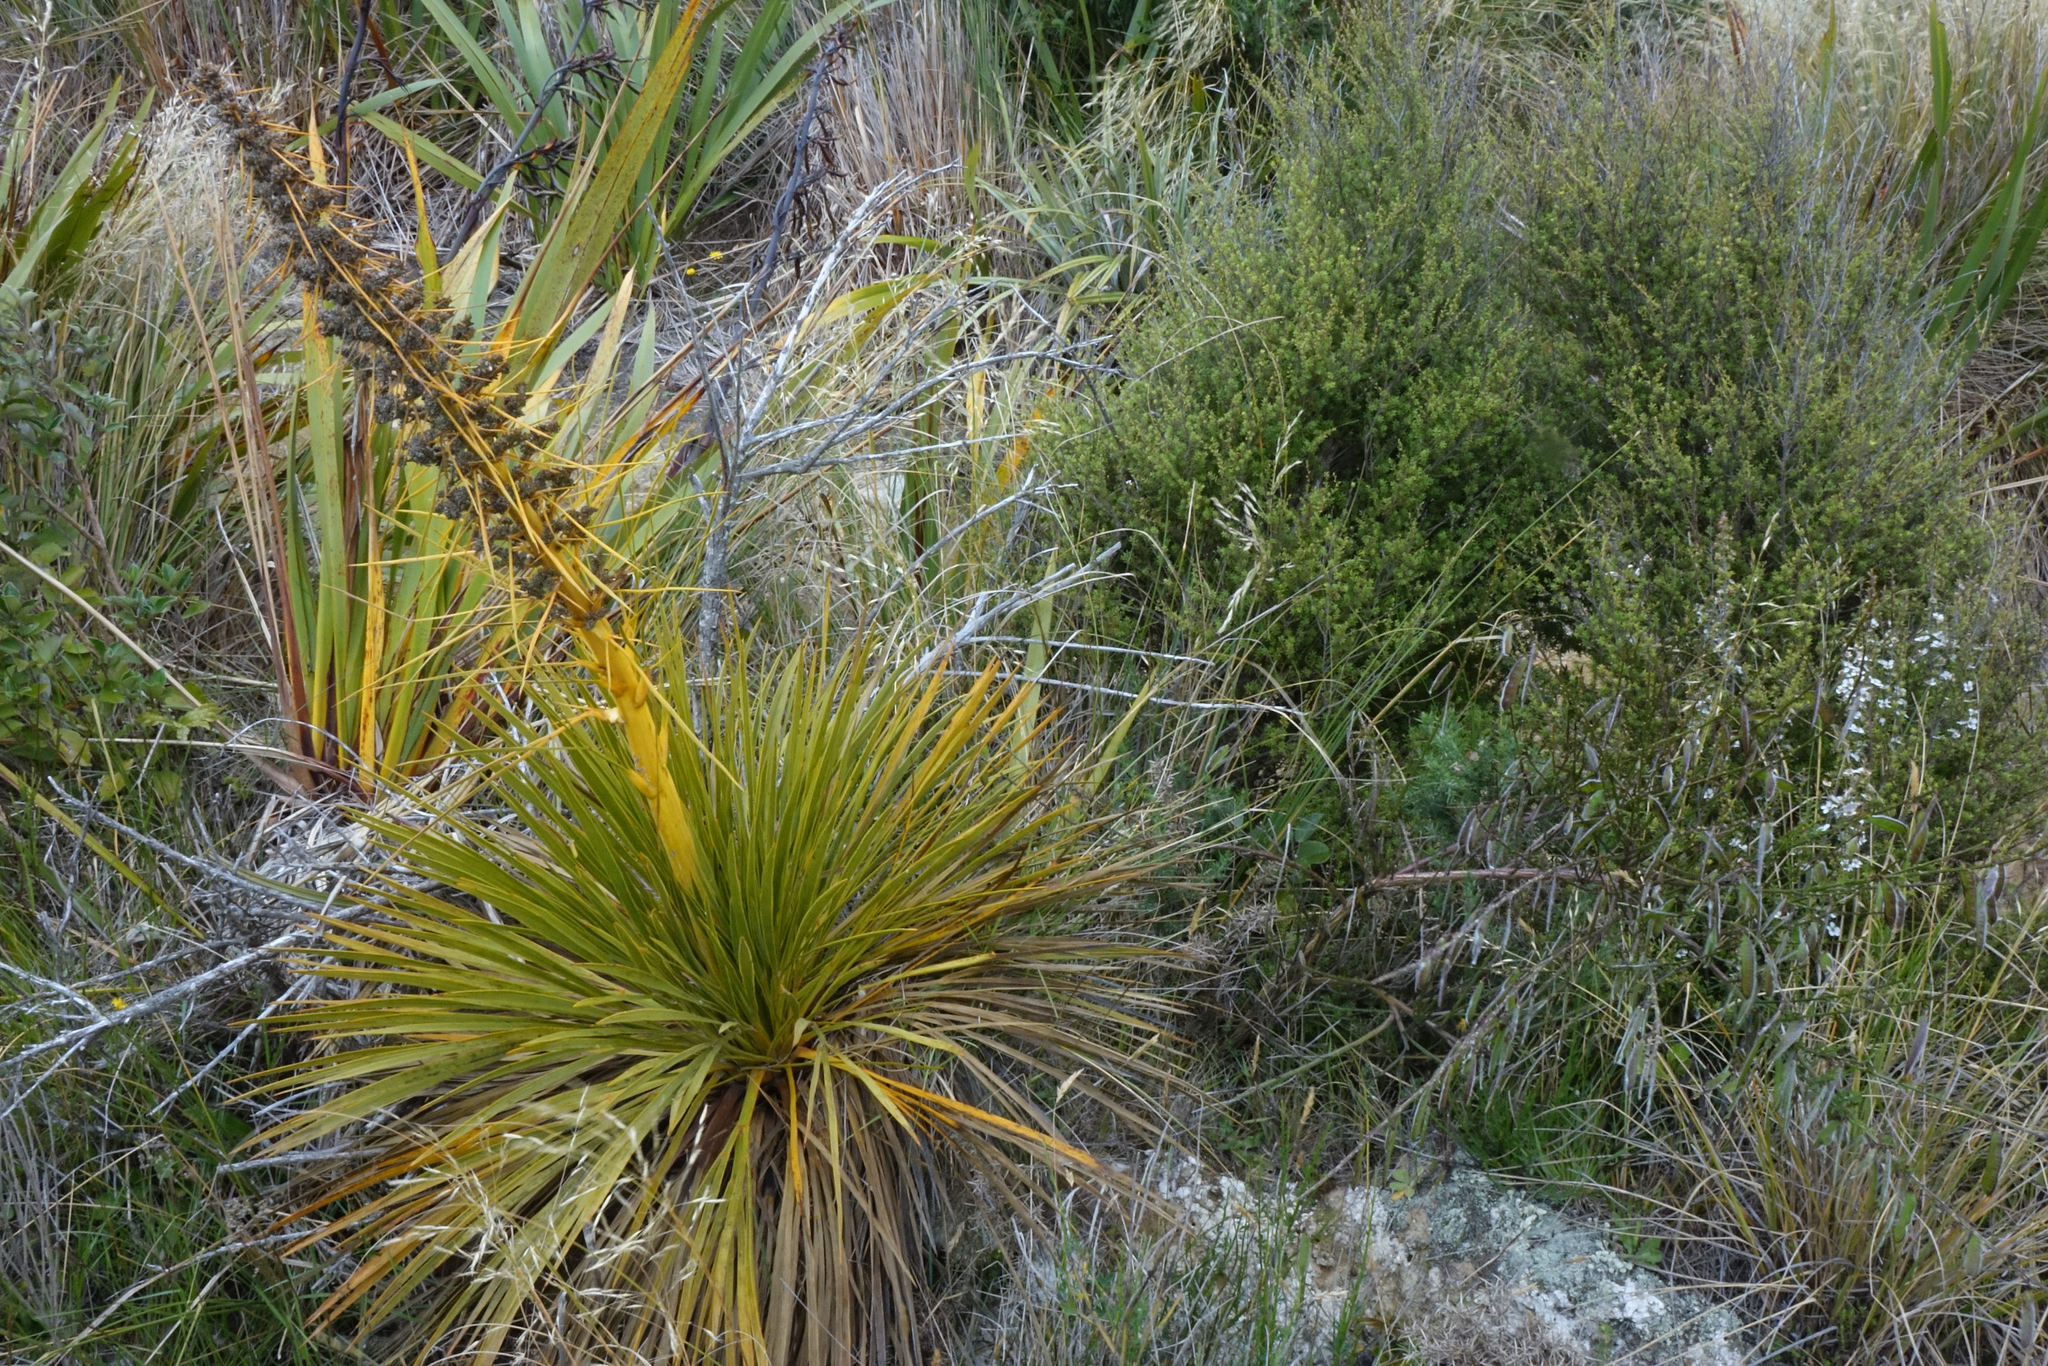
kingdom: Plantae
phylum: Tracheophyta
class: Magnoliopsida
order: Apiales
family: Apiaceae
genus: Aciphylla
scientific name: Aciphylla aurea
